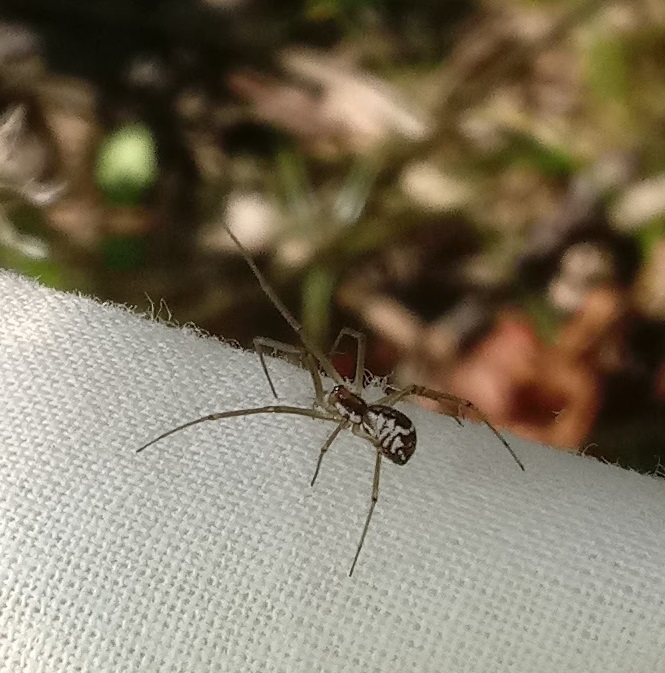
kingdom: Animalia
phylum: Arthropoda
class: Arachnida
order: Araneae
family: Linyphiidae
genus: Neriene
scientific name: Neriene radiata
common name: Filmy dome spider
